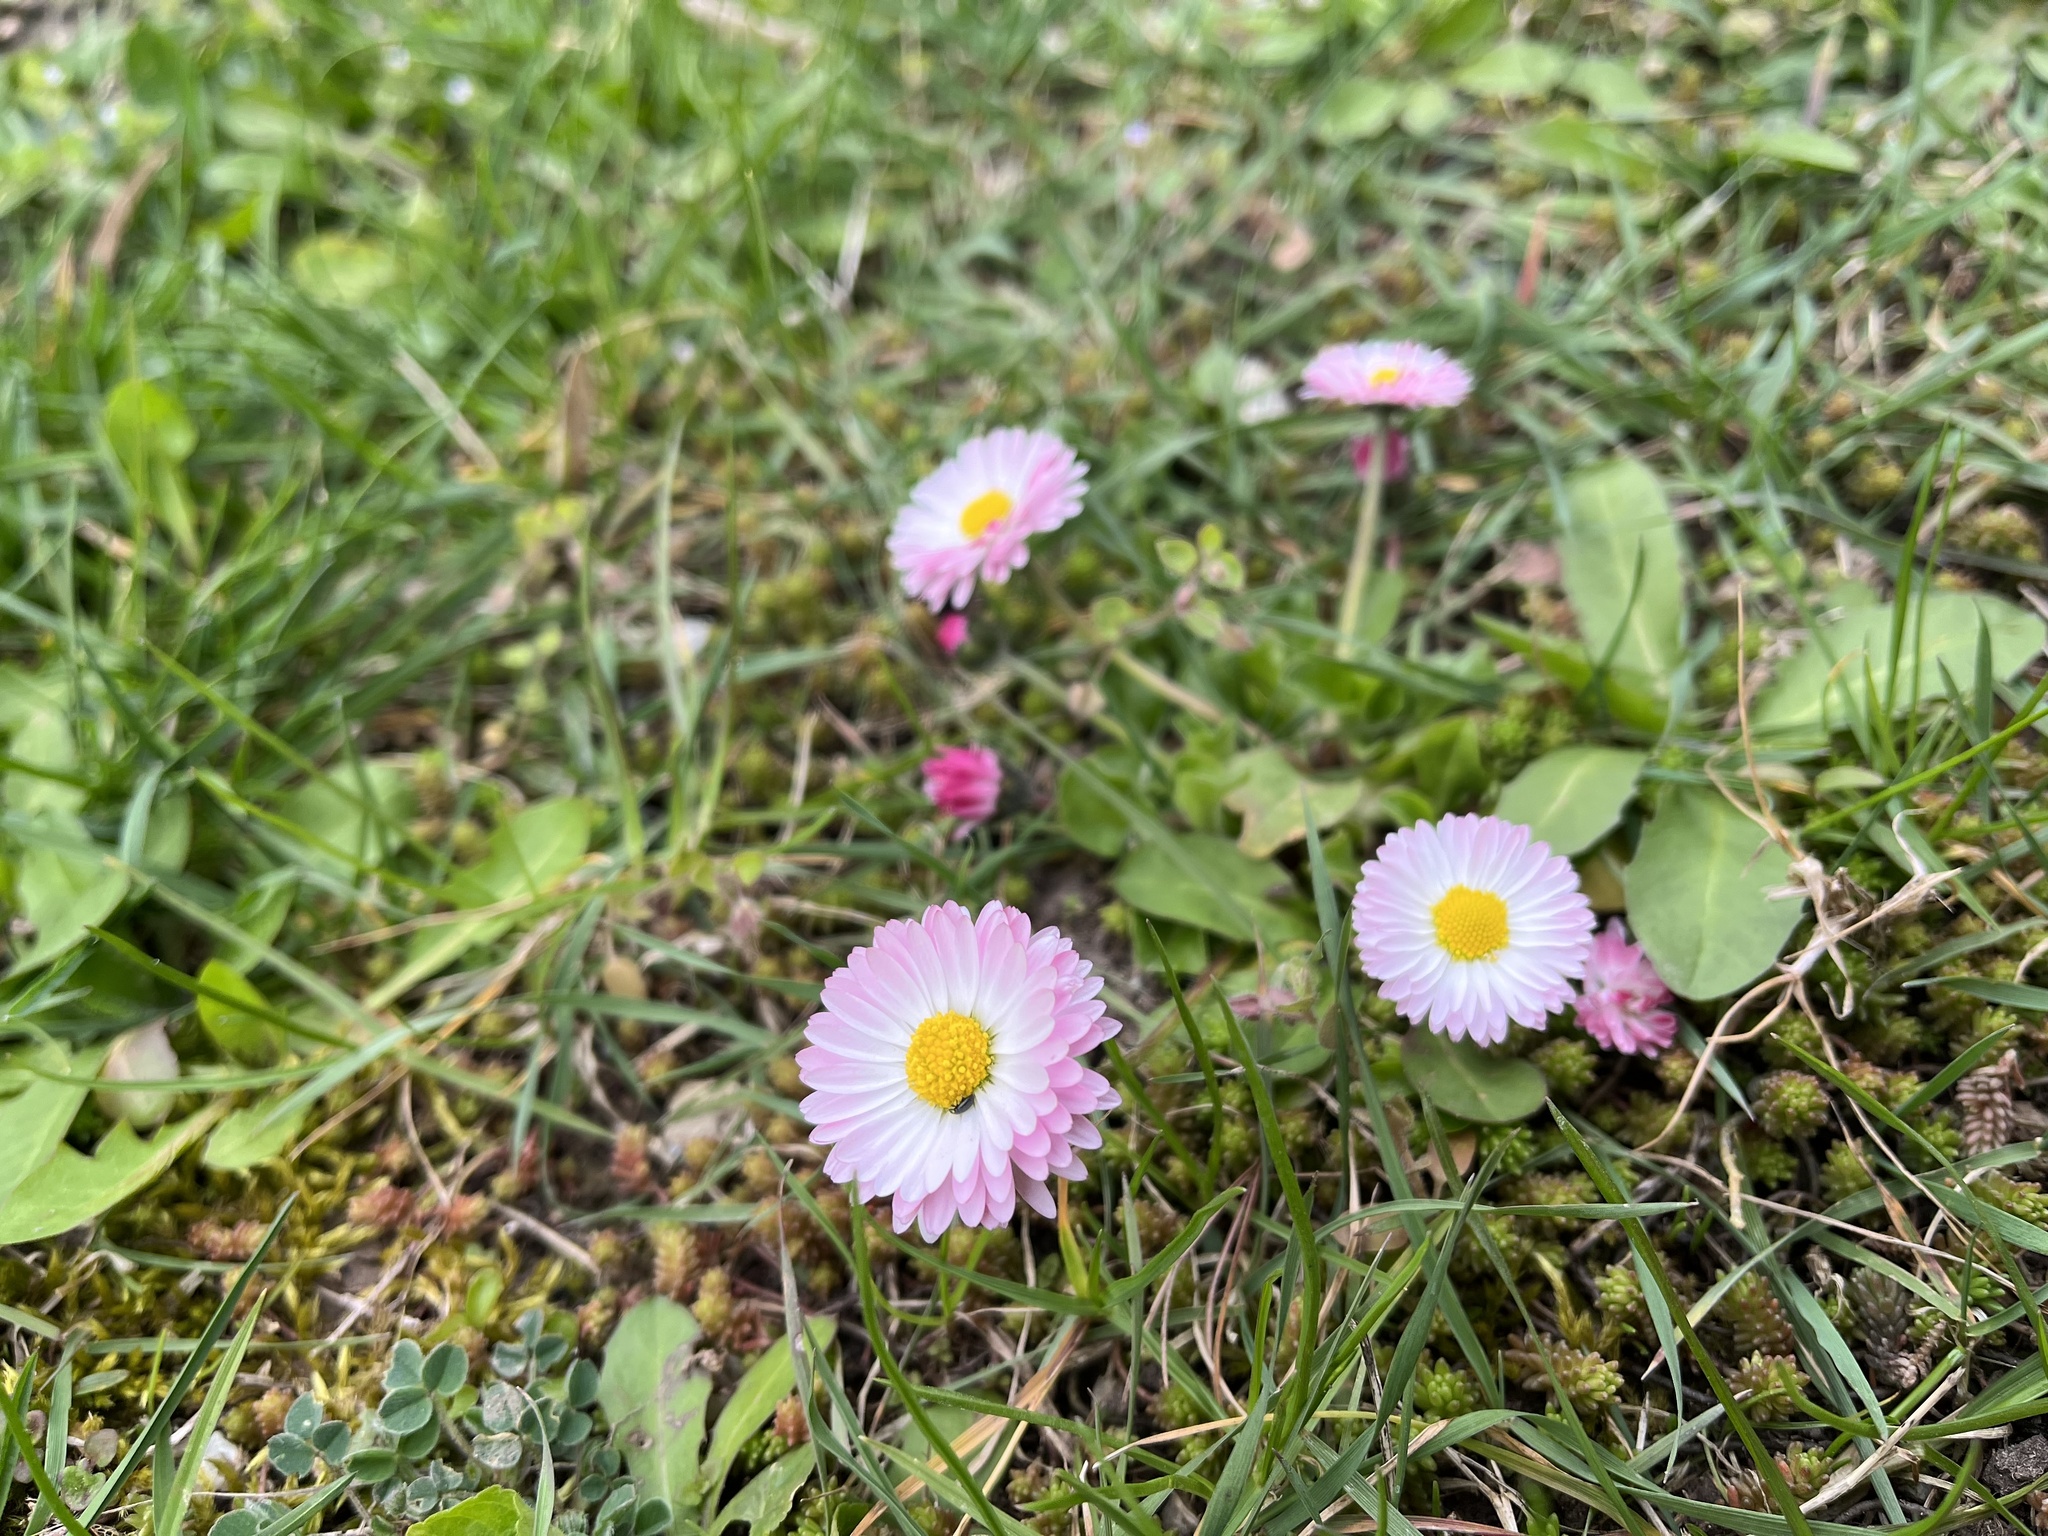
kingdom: Plantae
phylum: Tracheophyta
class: Magnoliopsida
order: Asterales
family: Asteraceae
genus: Bellis
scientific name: Bellis perennis
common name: Lawndaisy
